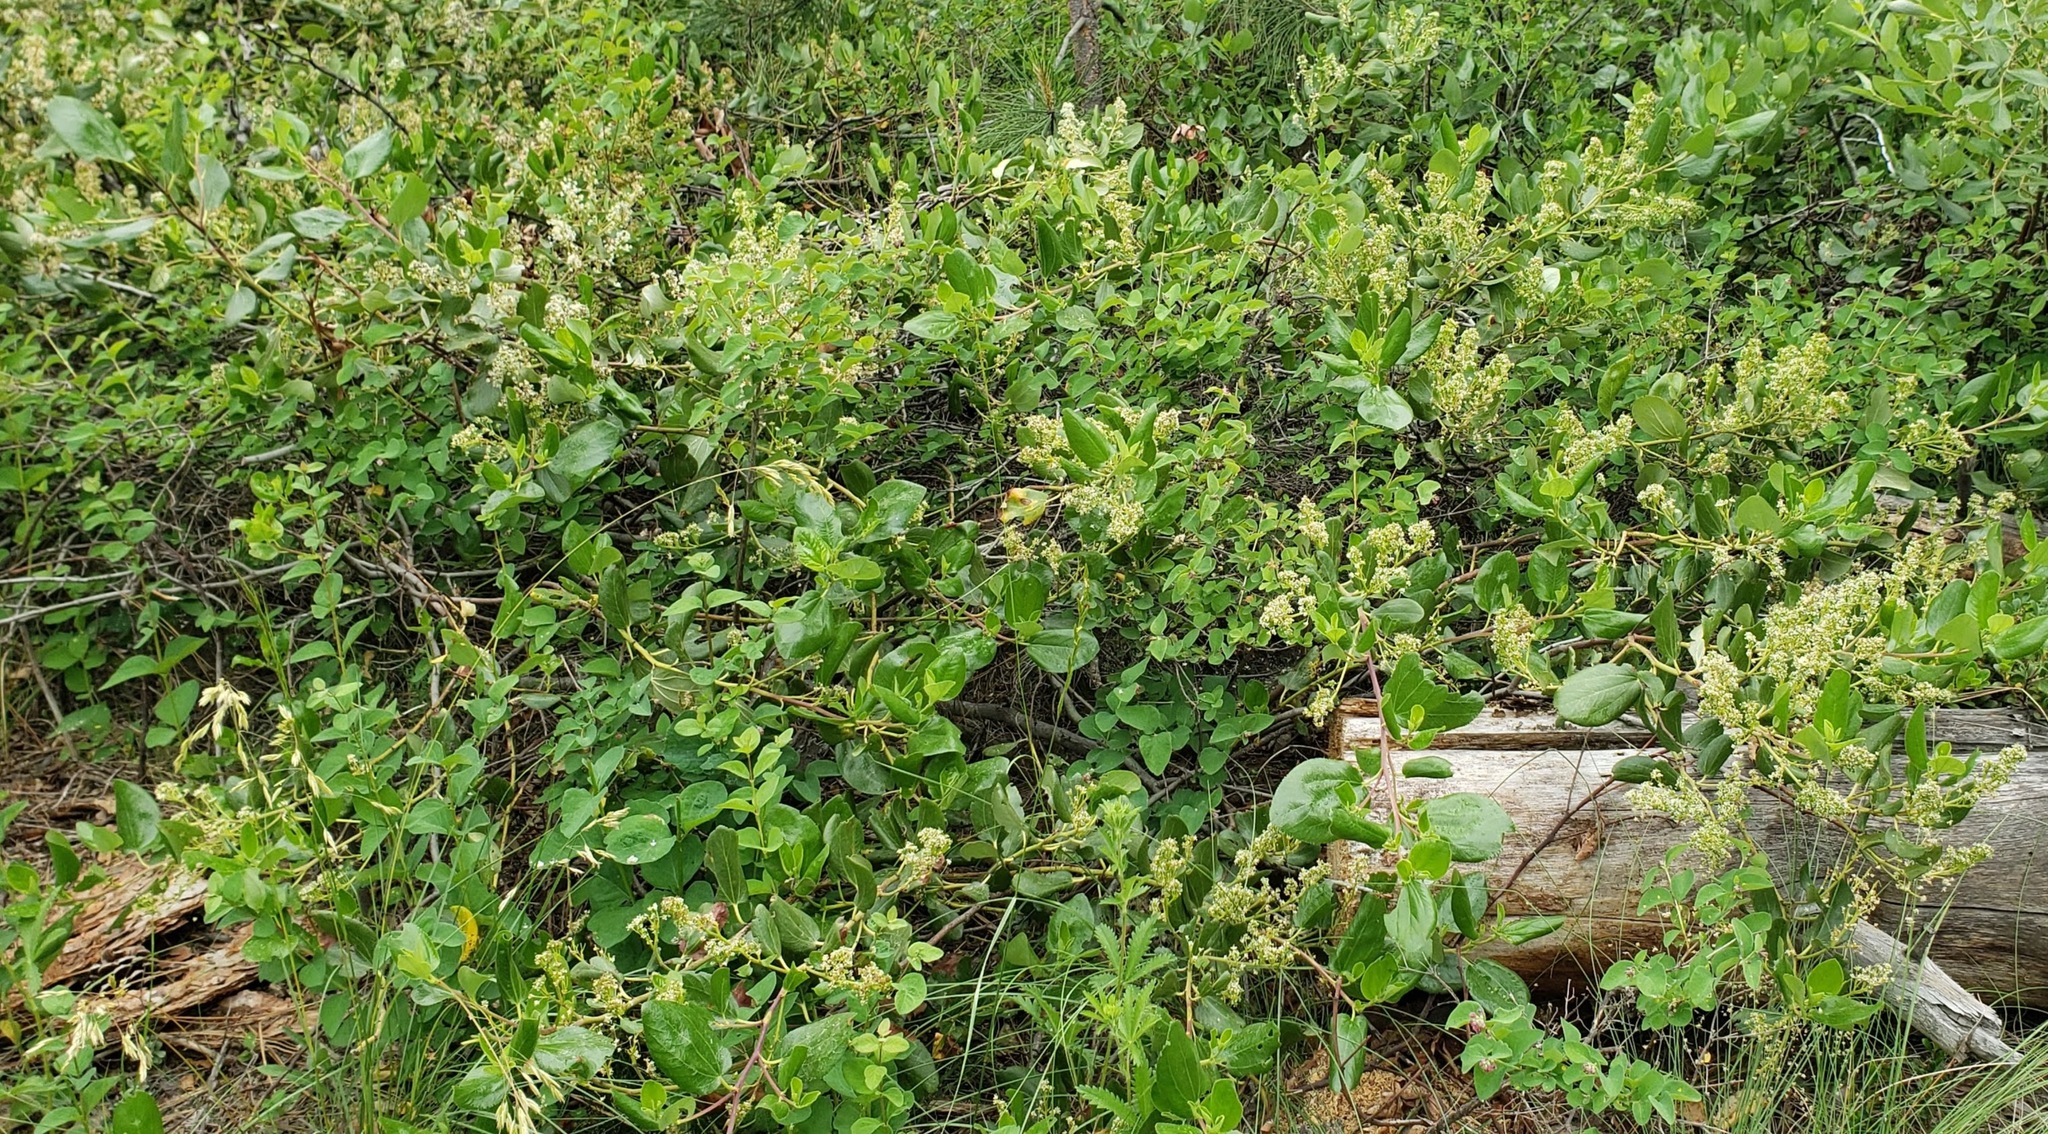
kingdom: Plantae
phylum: Tracheophyta
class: Magnoliopsida
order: Rosales
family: Rhamnaceae
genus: Ceanothus
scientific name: Ceanothus velutinus
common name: Snowbrush
